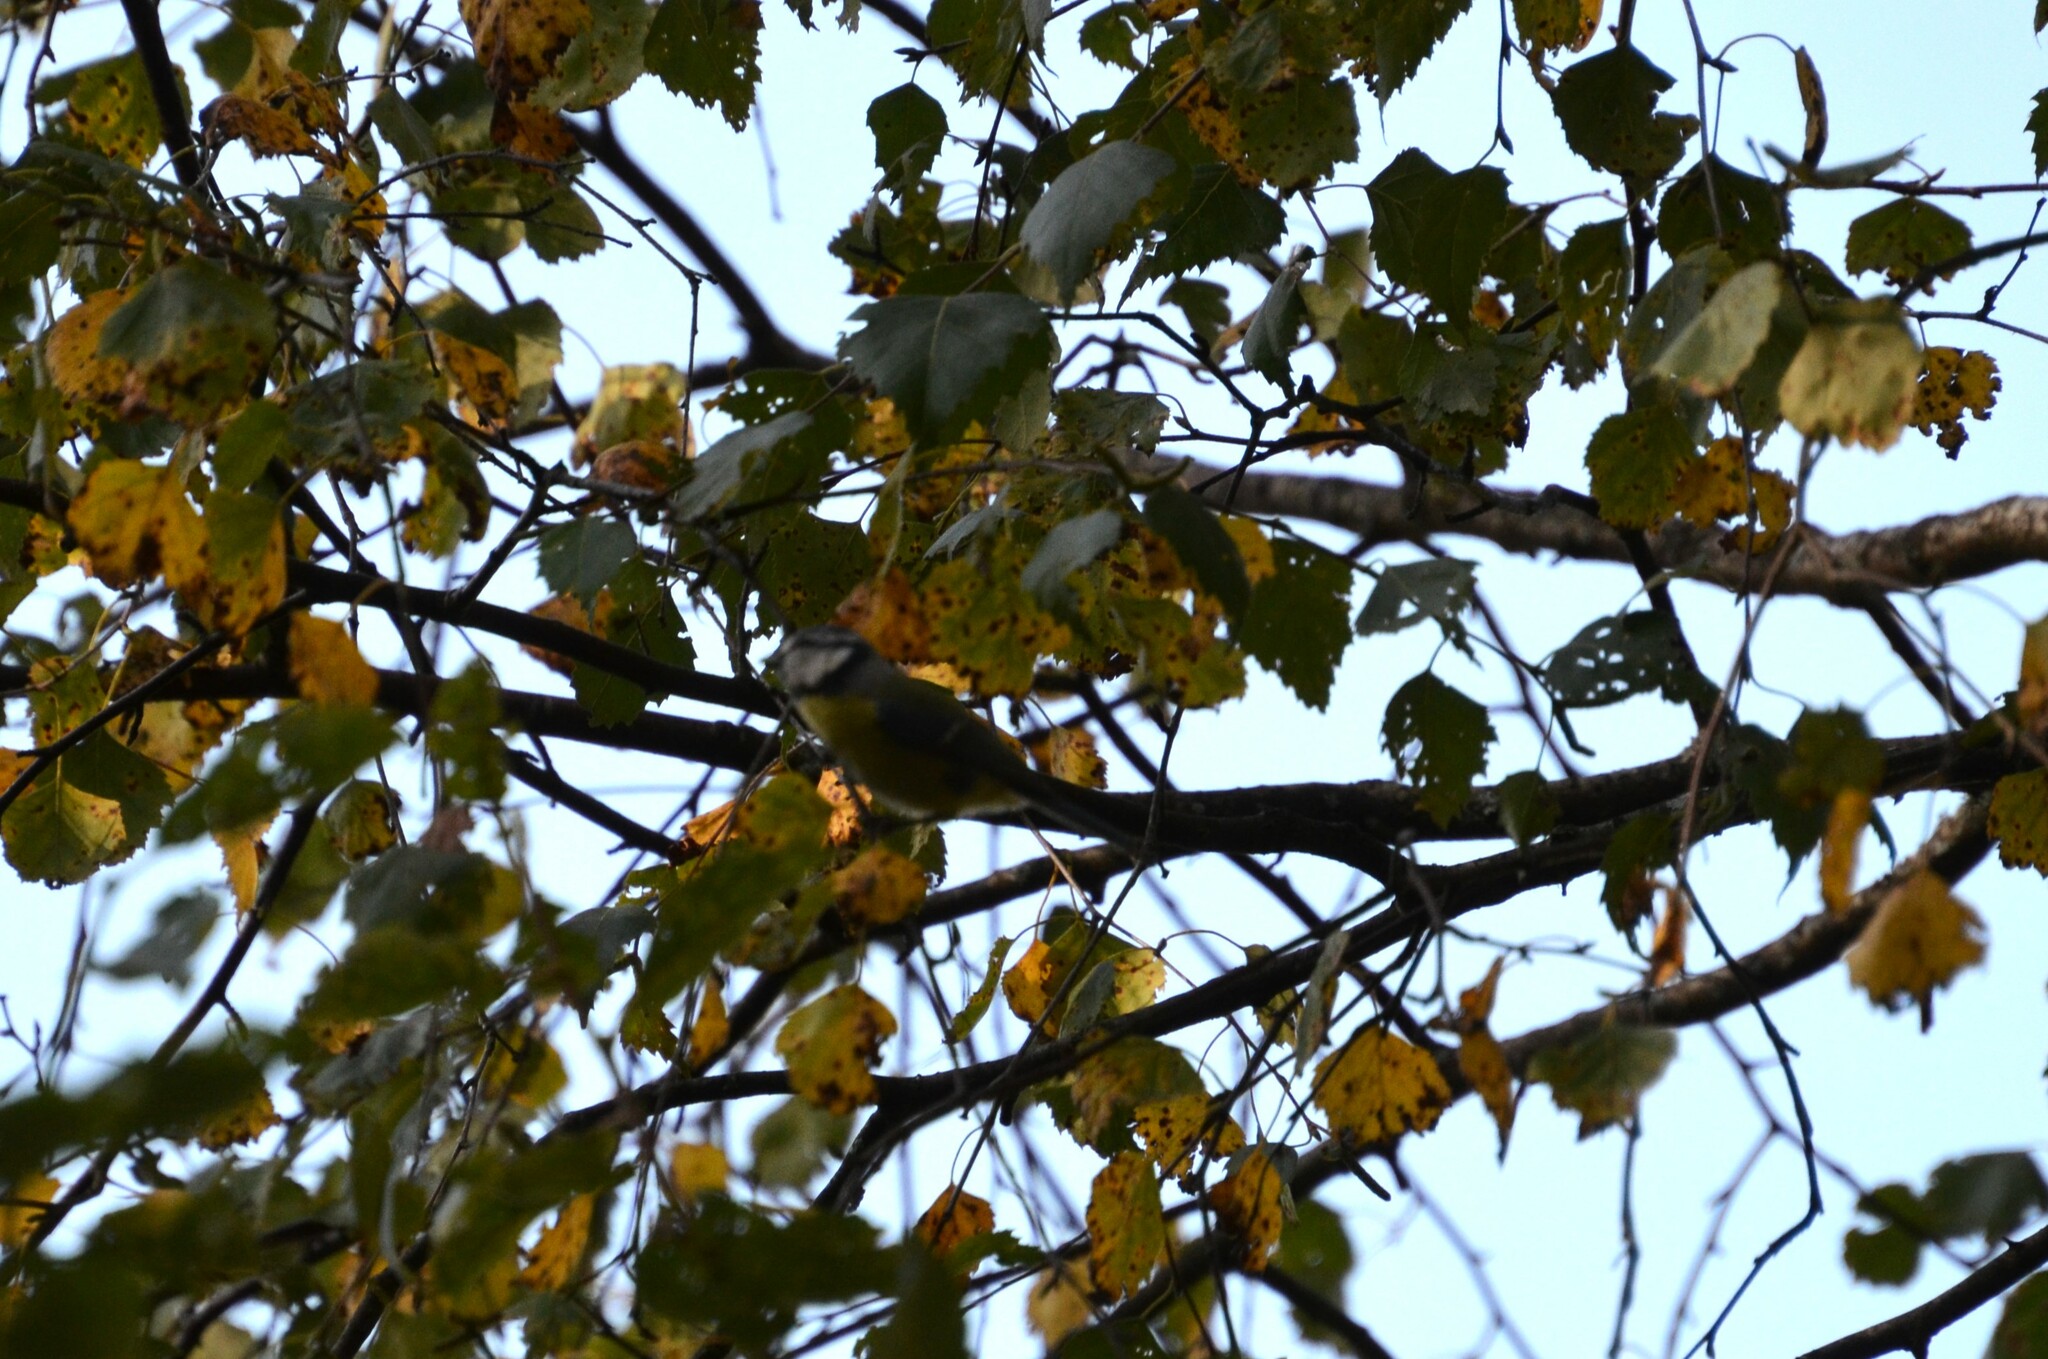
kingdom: Animalia
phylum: Chordata
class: Aves
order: Passeriformes
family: Paridae
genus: Cyanistes
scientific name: Cyanistes caeruleus
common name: Eurasian blue tit
